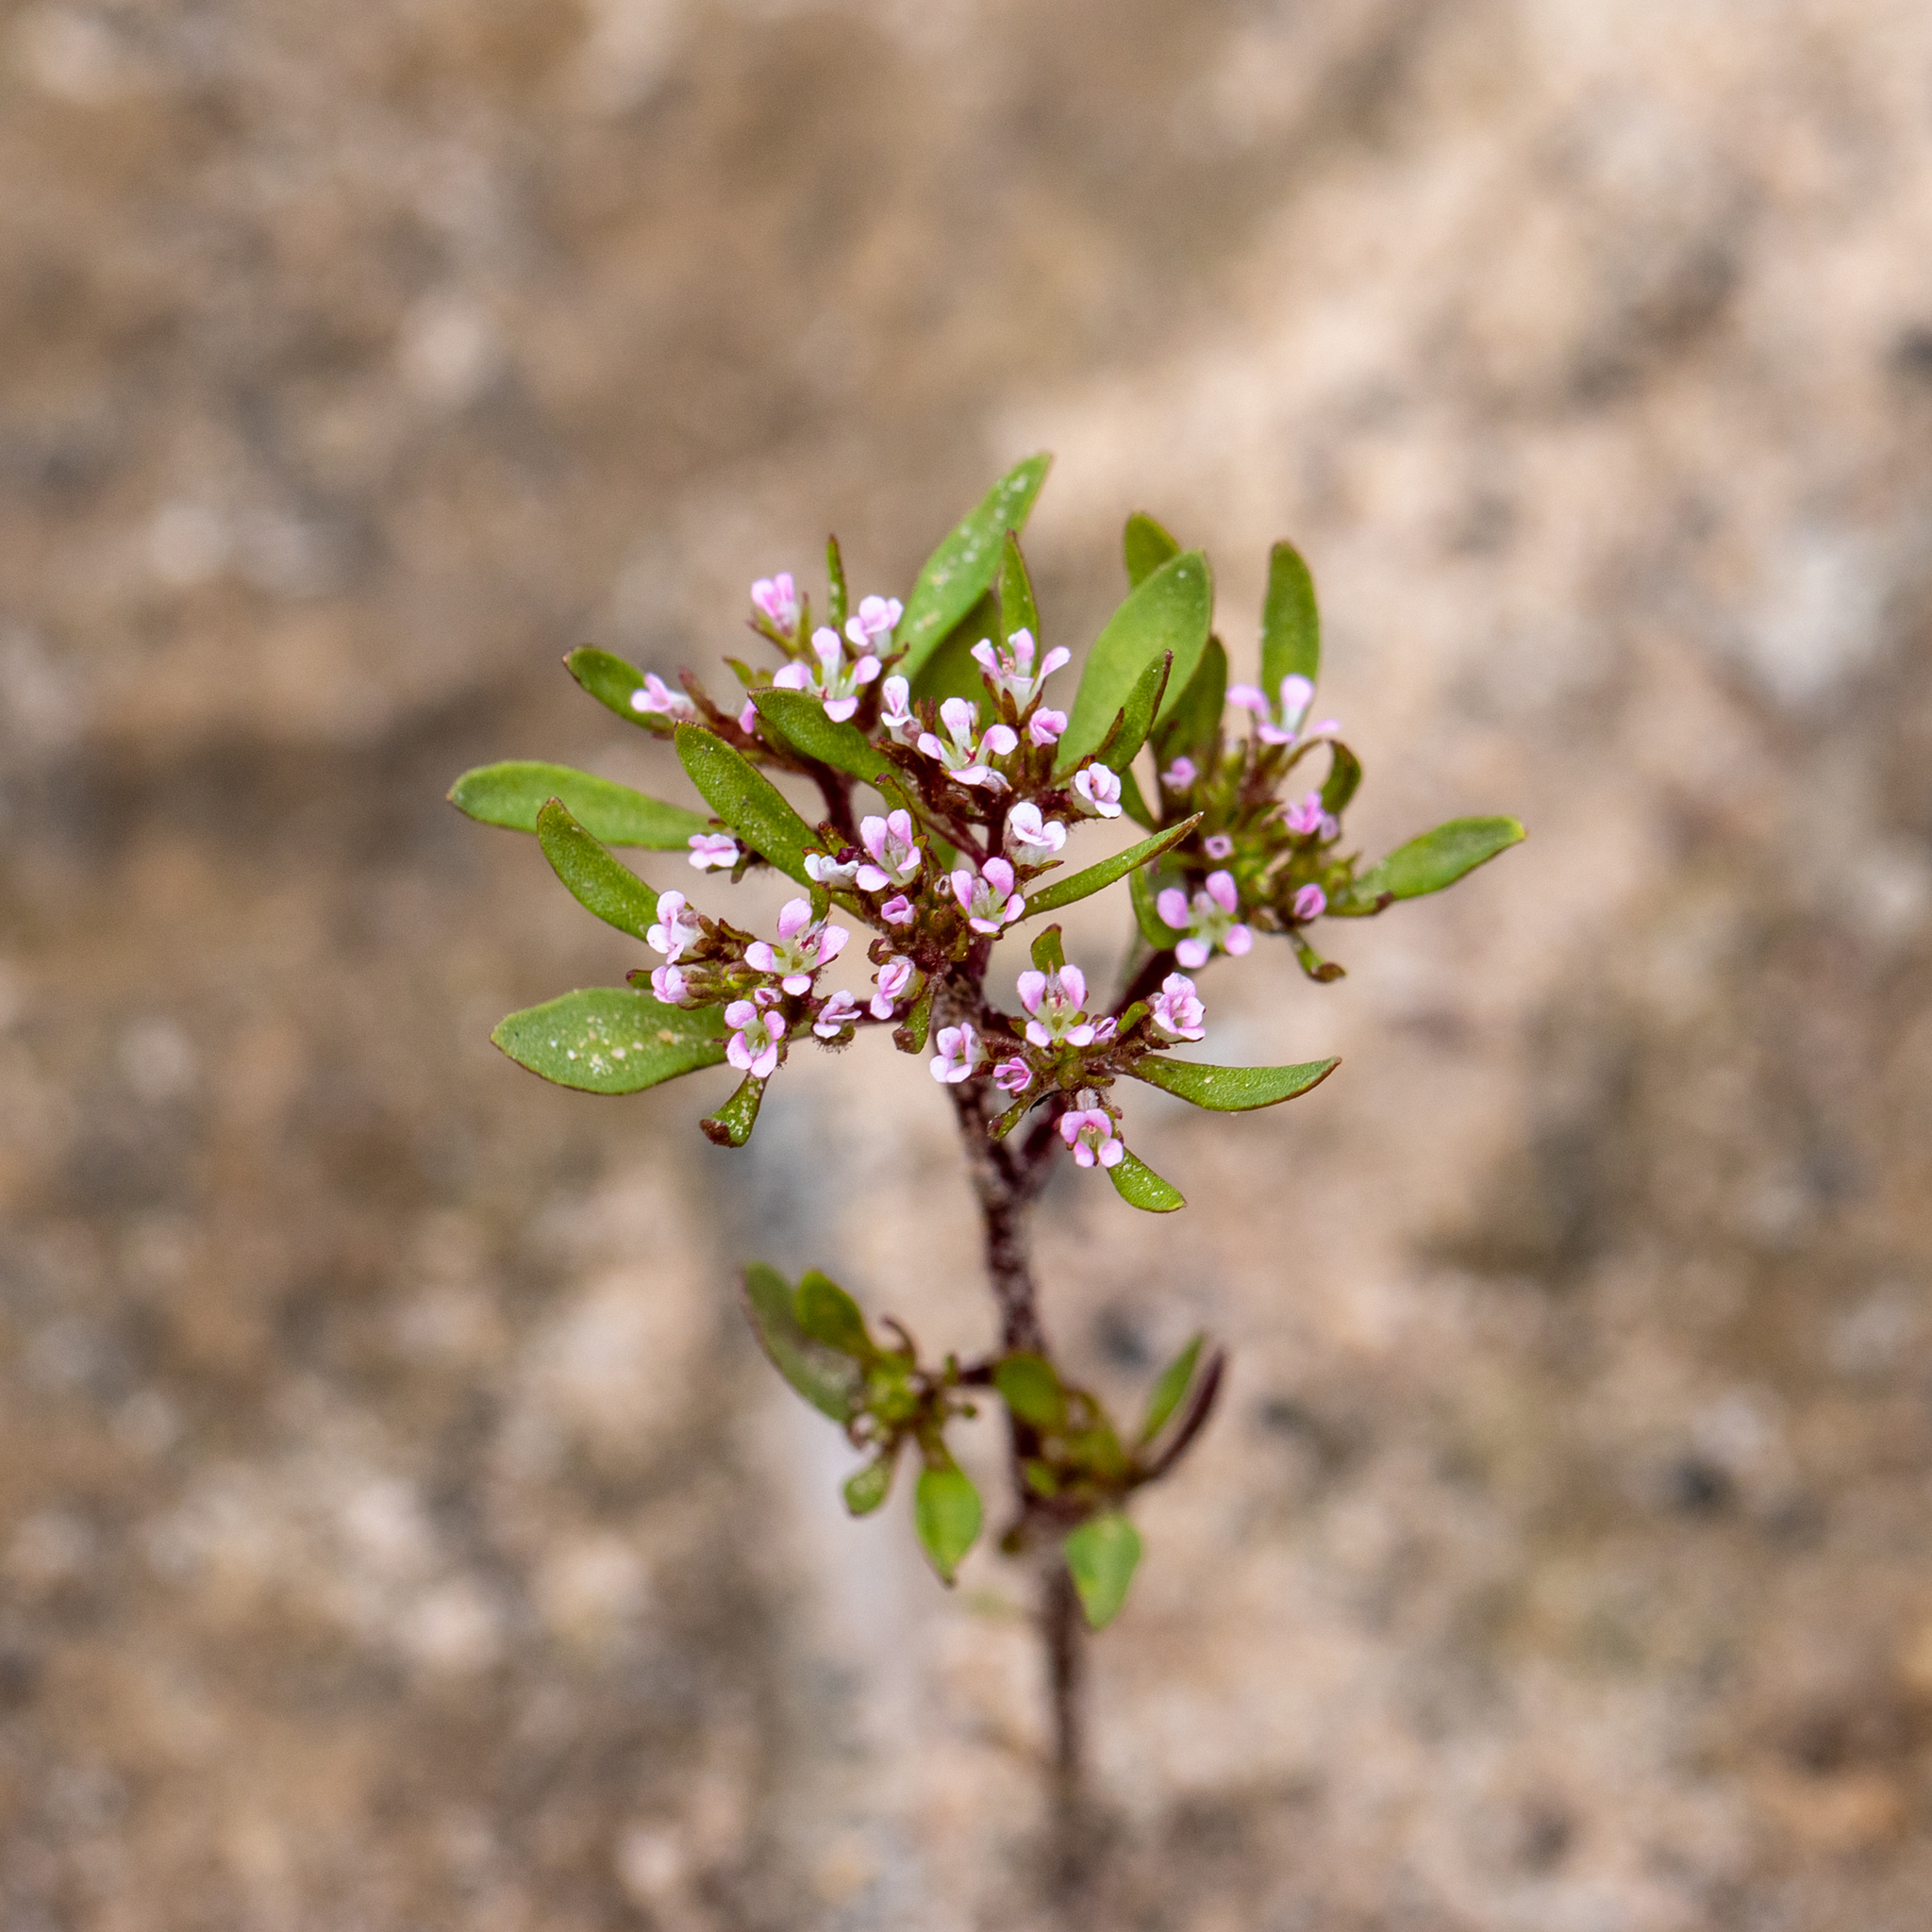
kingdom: Plantae
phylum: Tracheophyta
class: Magnoliopsida
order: Asterales
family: Stylidiaceae
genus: Levenhookia
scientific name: Levenhookia pusilla
